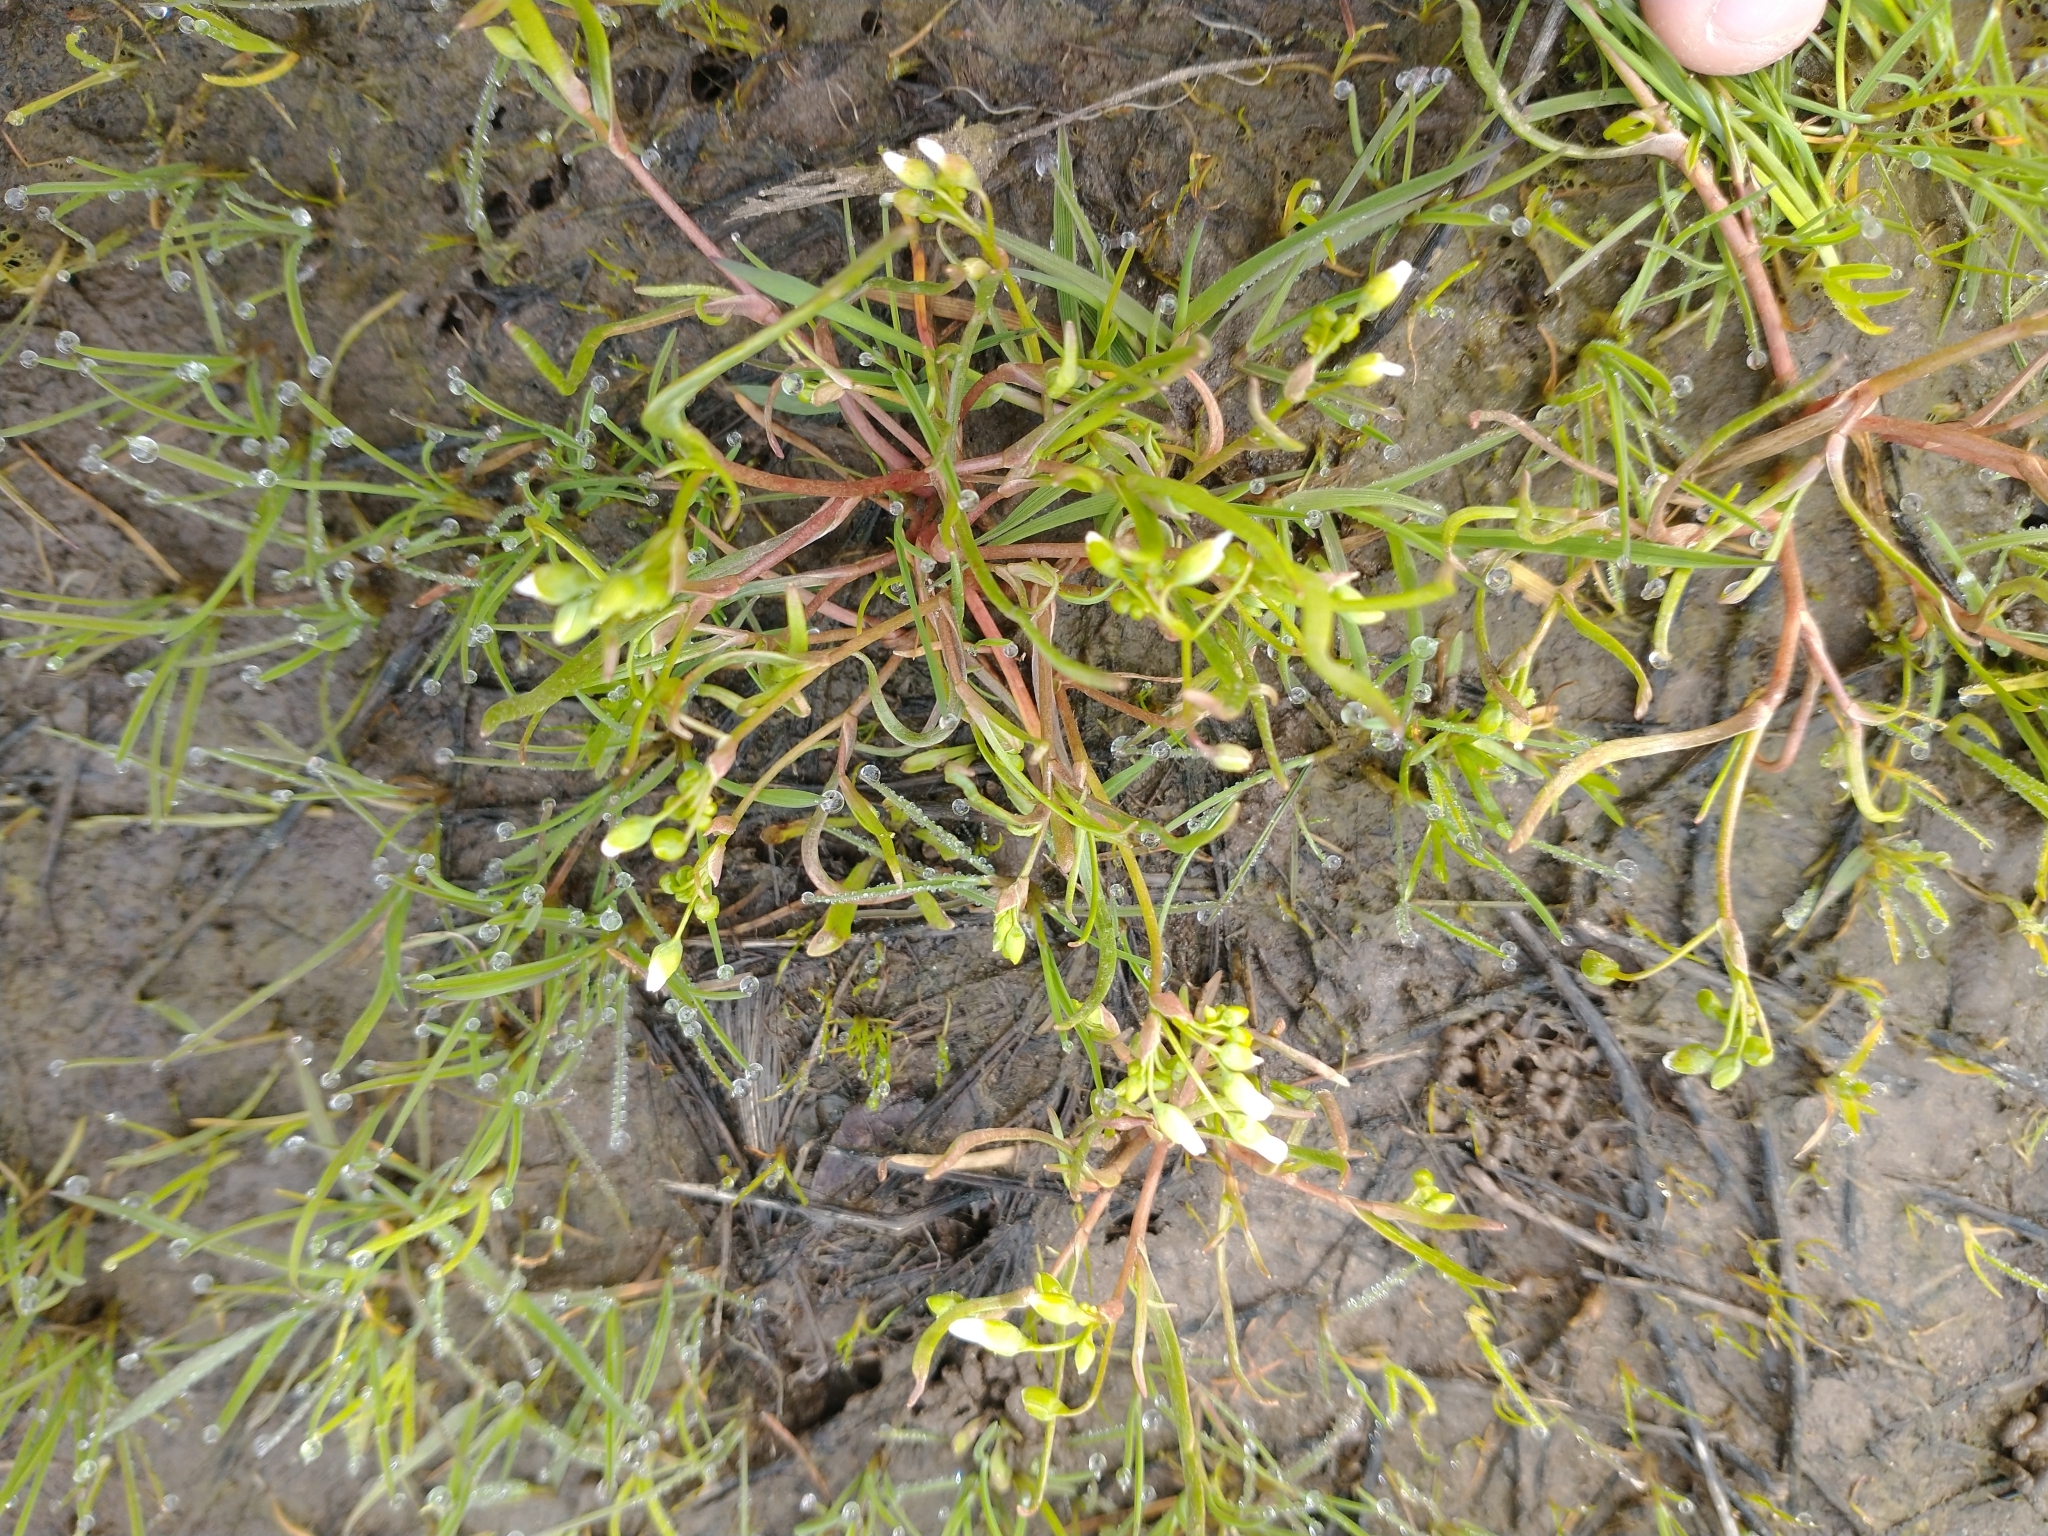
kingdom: Plantae
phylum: Tracheophyta
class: Magnoliopsida
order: Caryophyllales
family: Montiaceae
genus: Montia
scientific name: Montia linearis
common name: Narrow-leaf montia
